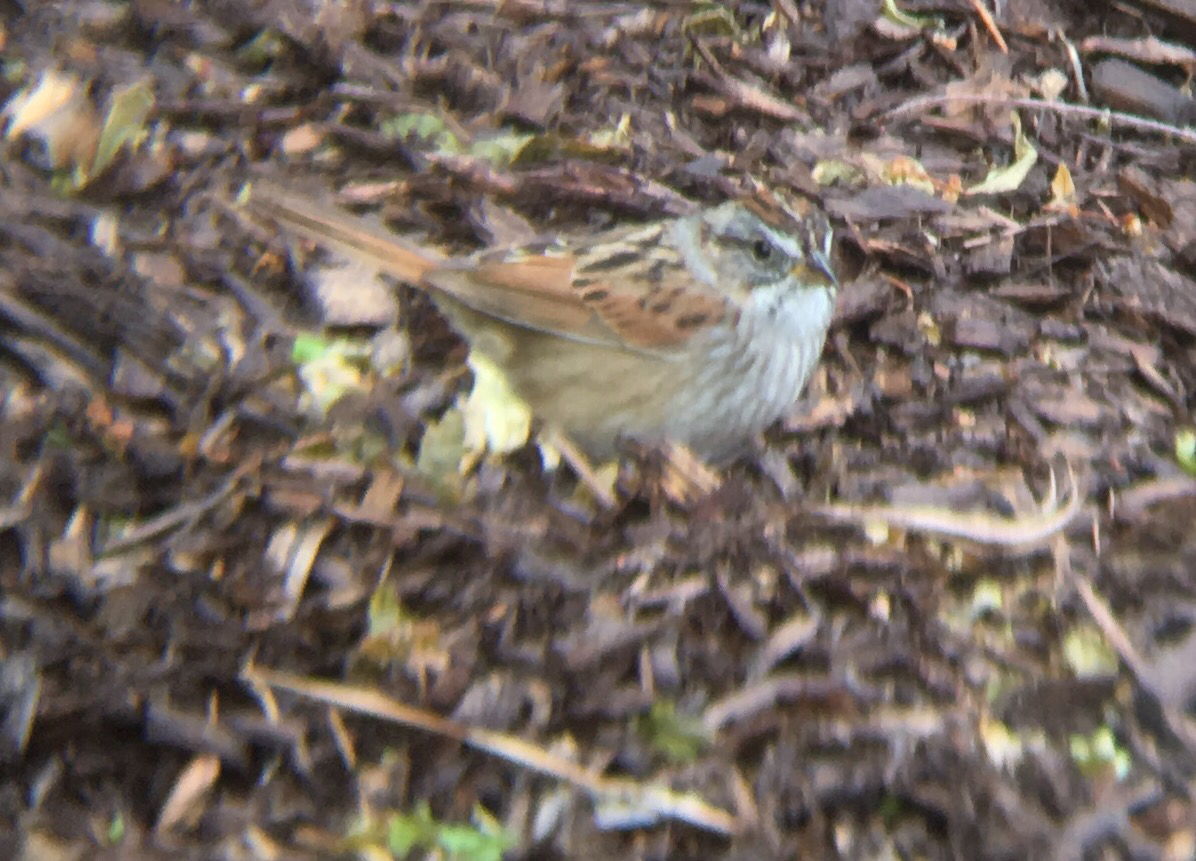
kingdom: Animalia
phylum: Chordata
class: Aves
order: Passeriformes
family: Passerellidae
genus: Melospiza
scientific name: Melospiza georgiana
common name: Swamp sparrow
